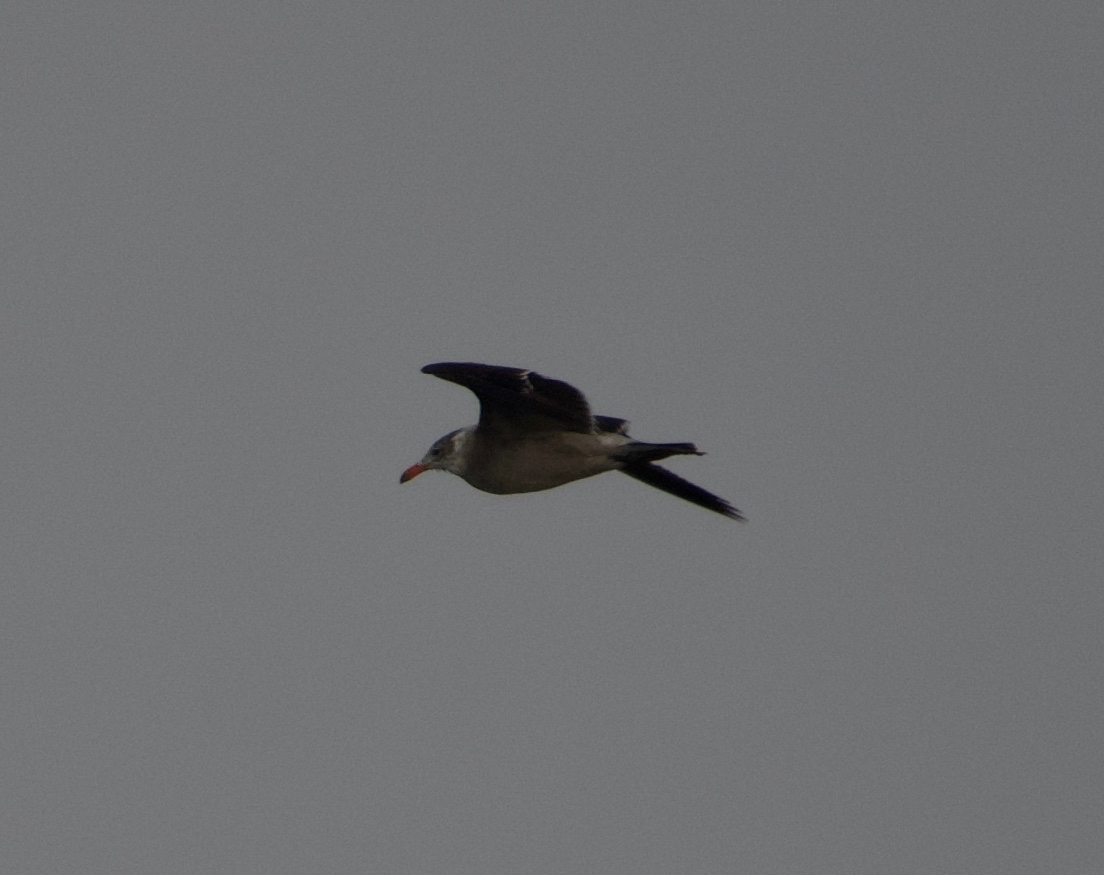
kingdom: Animalia
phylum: Chordata
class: Aves
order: Charadriiformes
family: Laridae
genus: Larus
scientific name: Larus heermanni
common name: Heermann's gull
